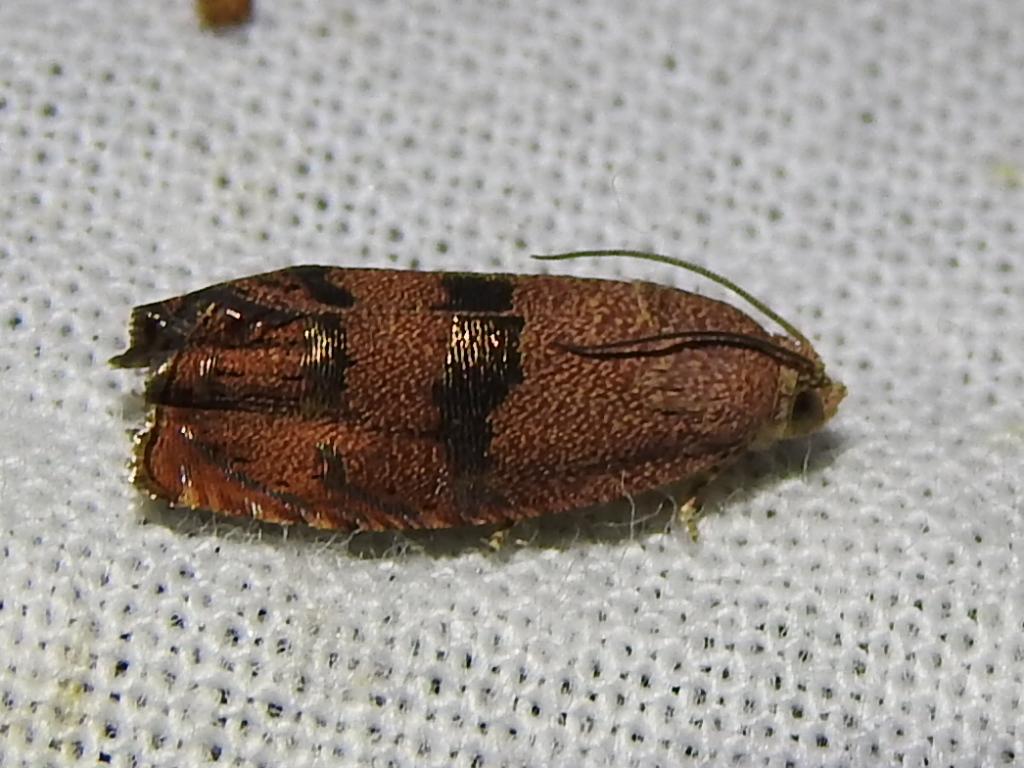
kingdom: Animalia
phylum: Arthropoda
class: Insecta
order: Lepidoptera
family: Tortricidae
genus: Cydia
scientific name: Cydia latiferreana
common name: Filbertworm moth
